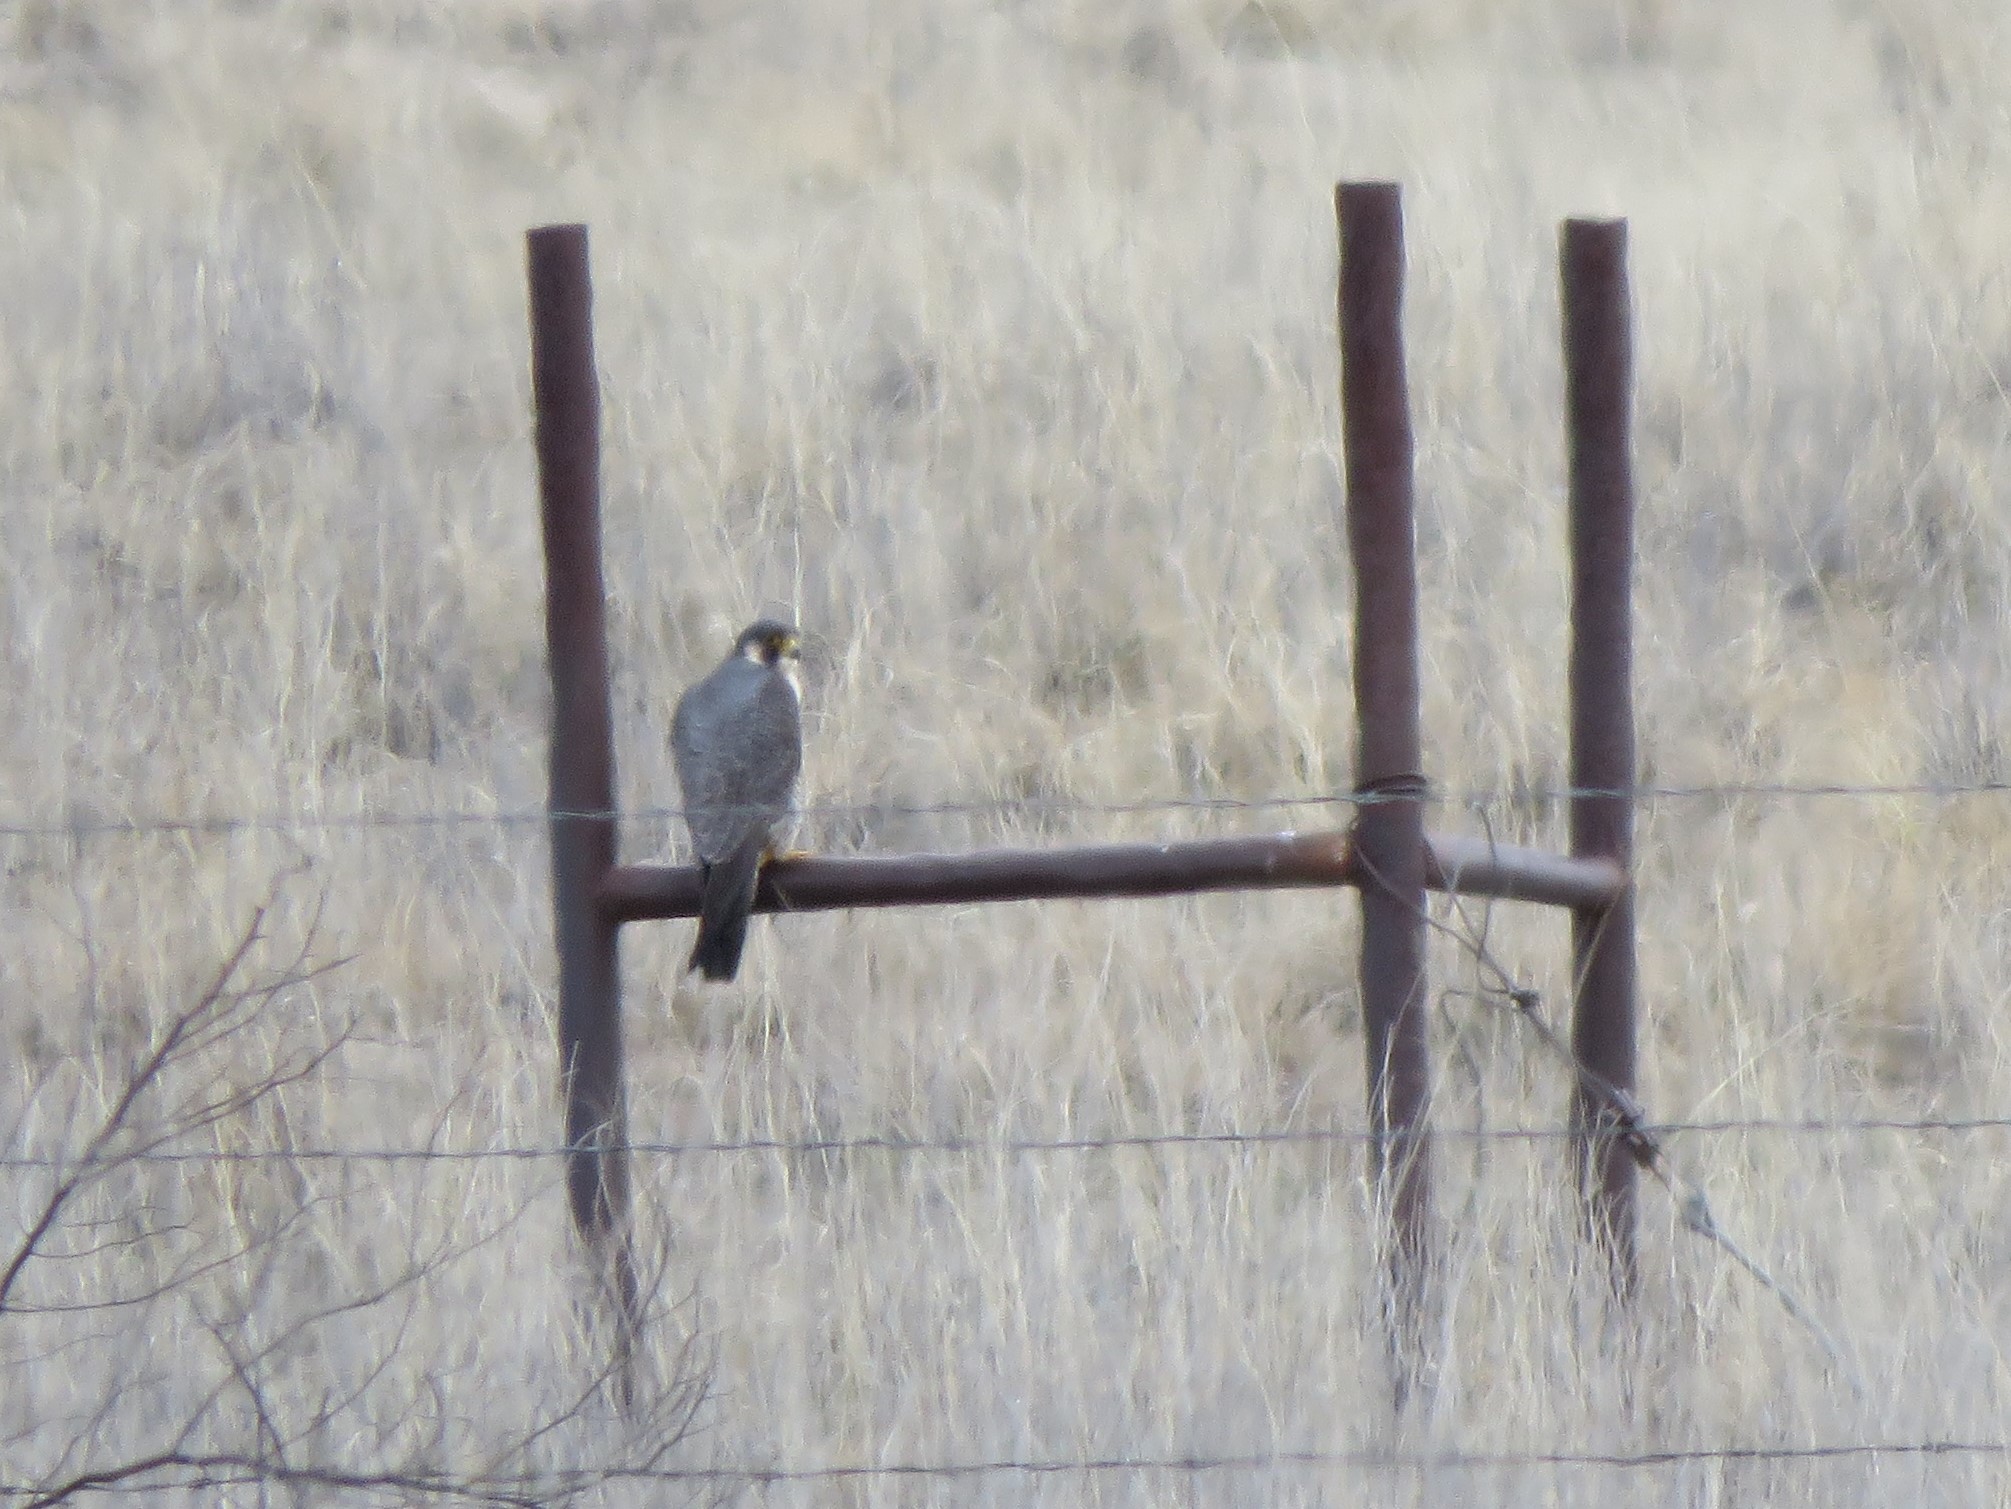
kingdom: Animalia
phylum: Chordata
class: Aves
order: Falconiformes
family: Falconidae
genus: Falco
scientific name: Falco peregrinus
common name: Peregrine falcon
